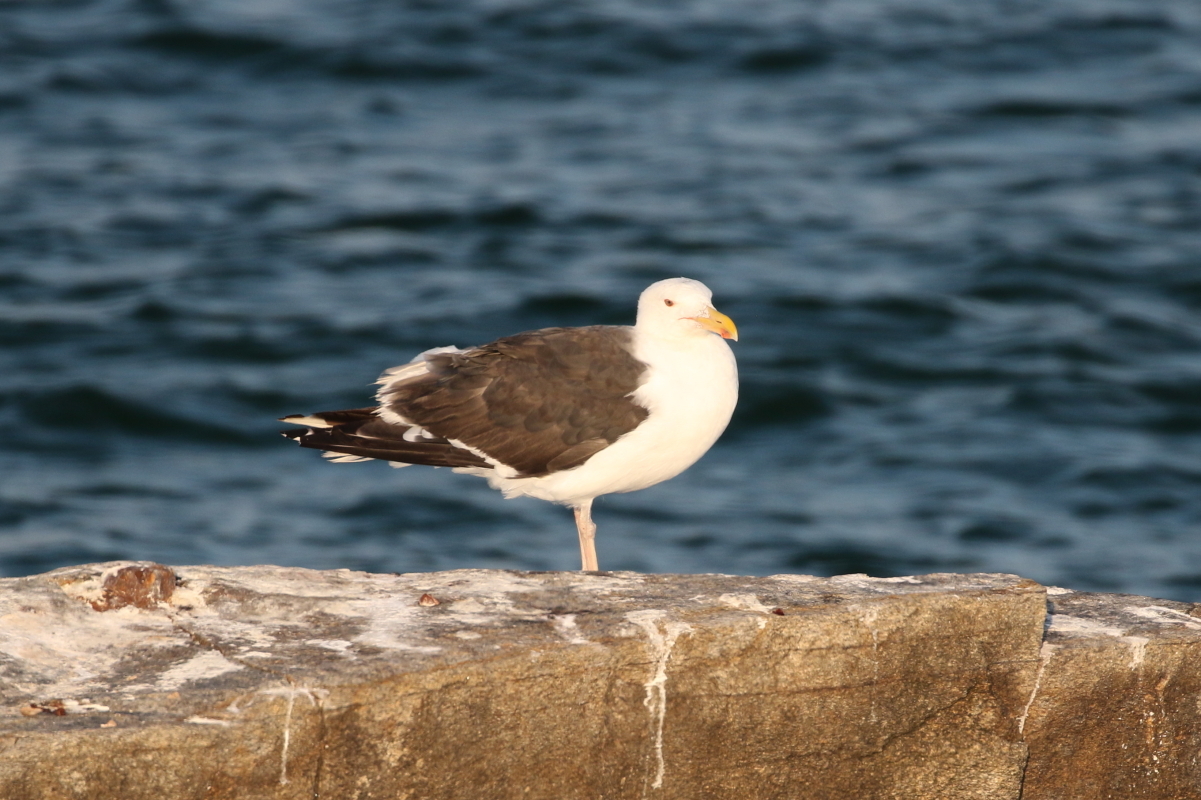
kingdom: Animalia
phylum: Chordata
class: Aves
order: Charadriiformes
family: Laridae
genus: Larus
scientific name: Larus marinus
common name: Great black-backed gull
